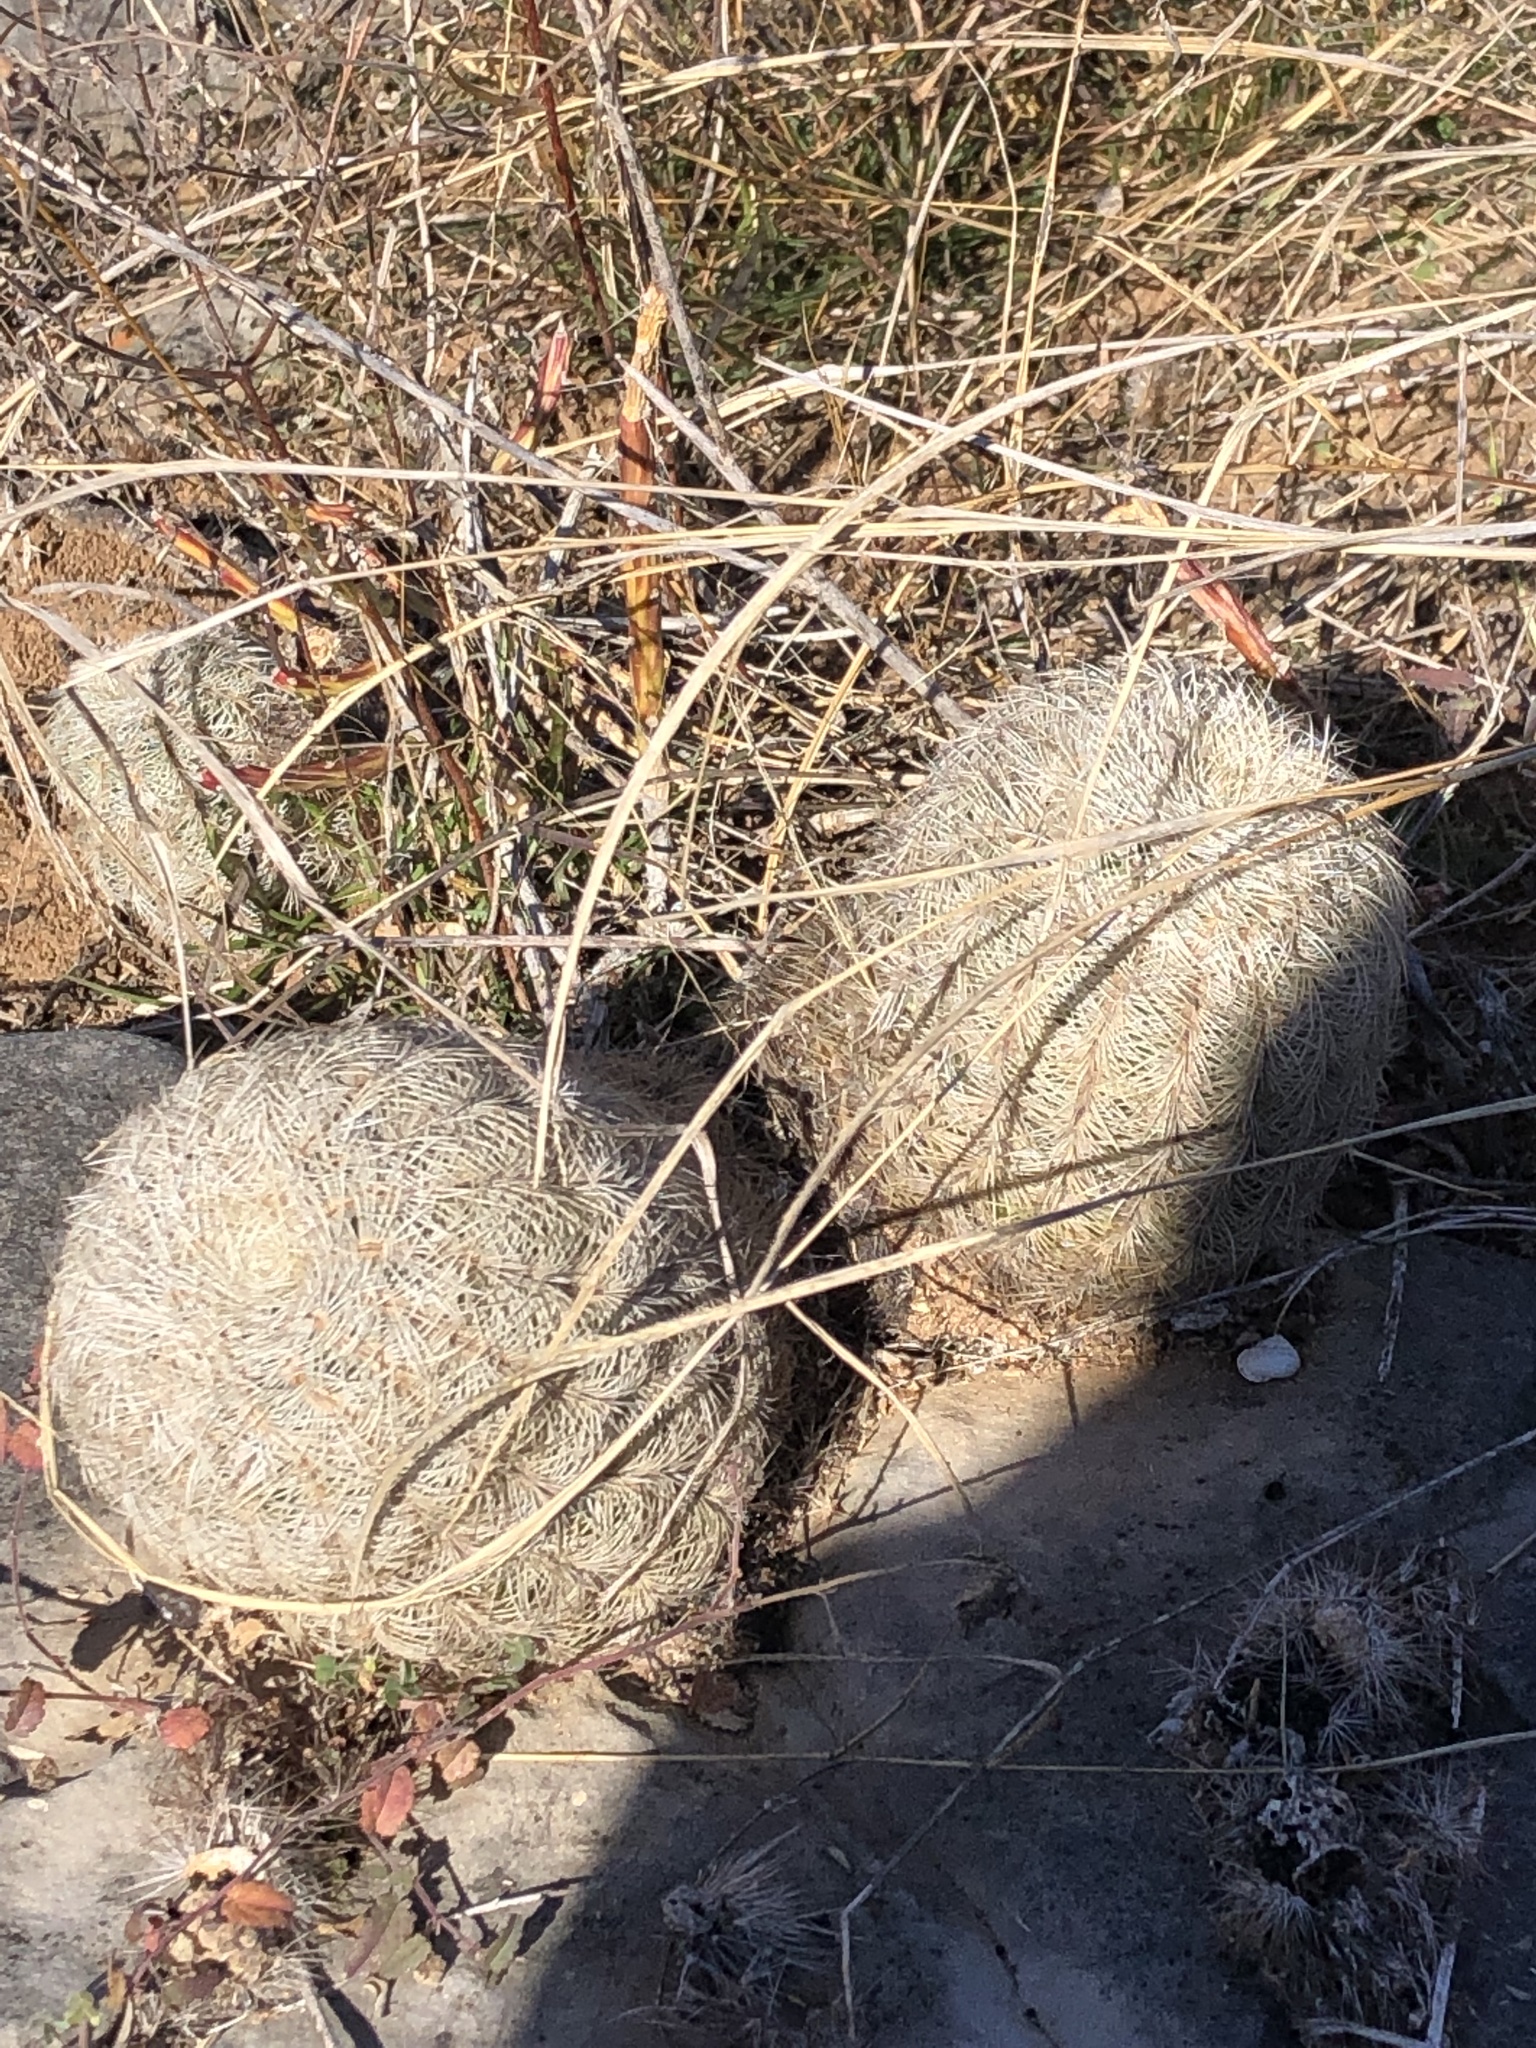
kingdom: Plantae
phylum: Tracheophyta
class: Magnoliopsida
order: Caryophyllales
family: Cactaceae
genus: Echinocereus
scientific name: Echinocereus reichenbachii
